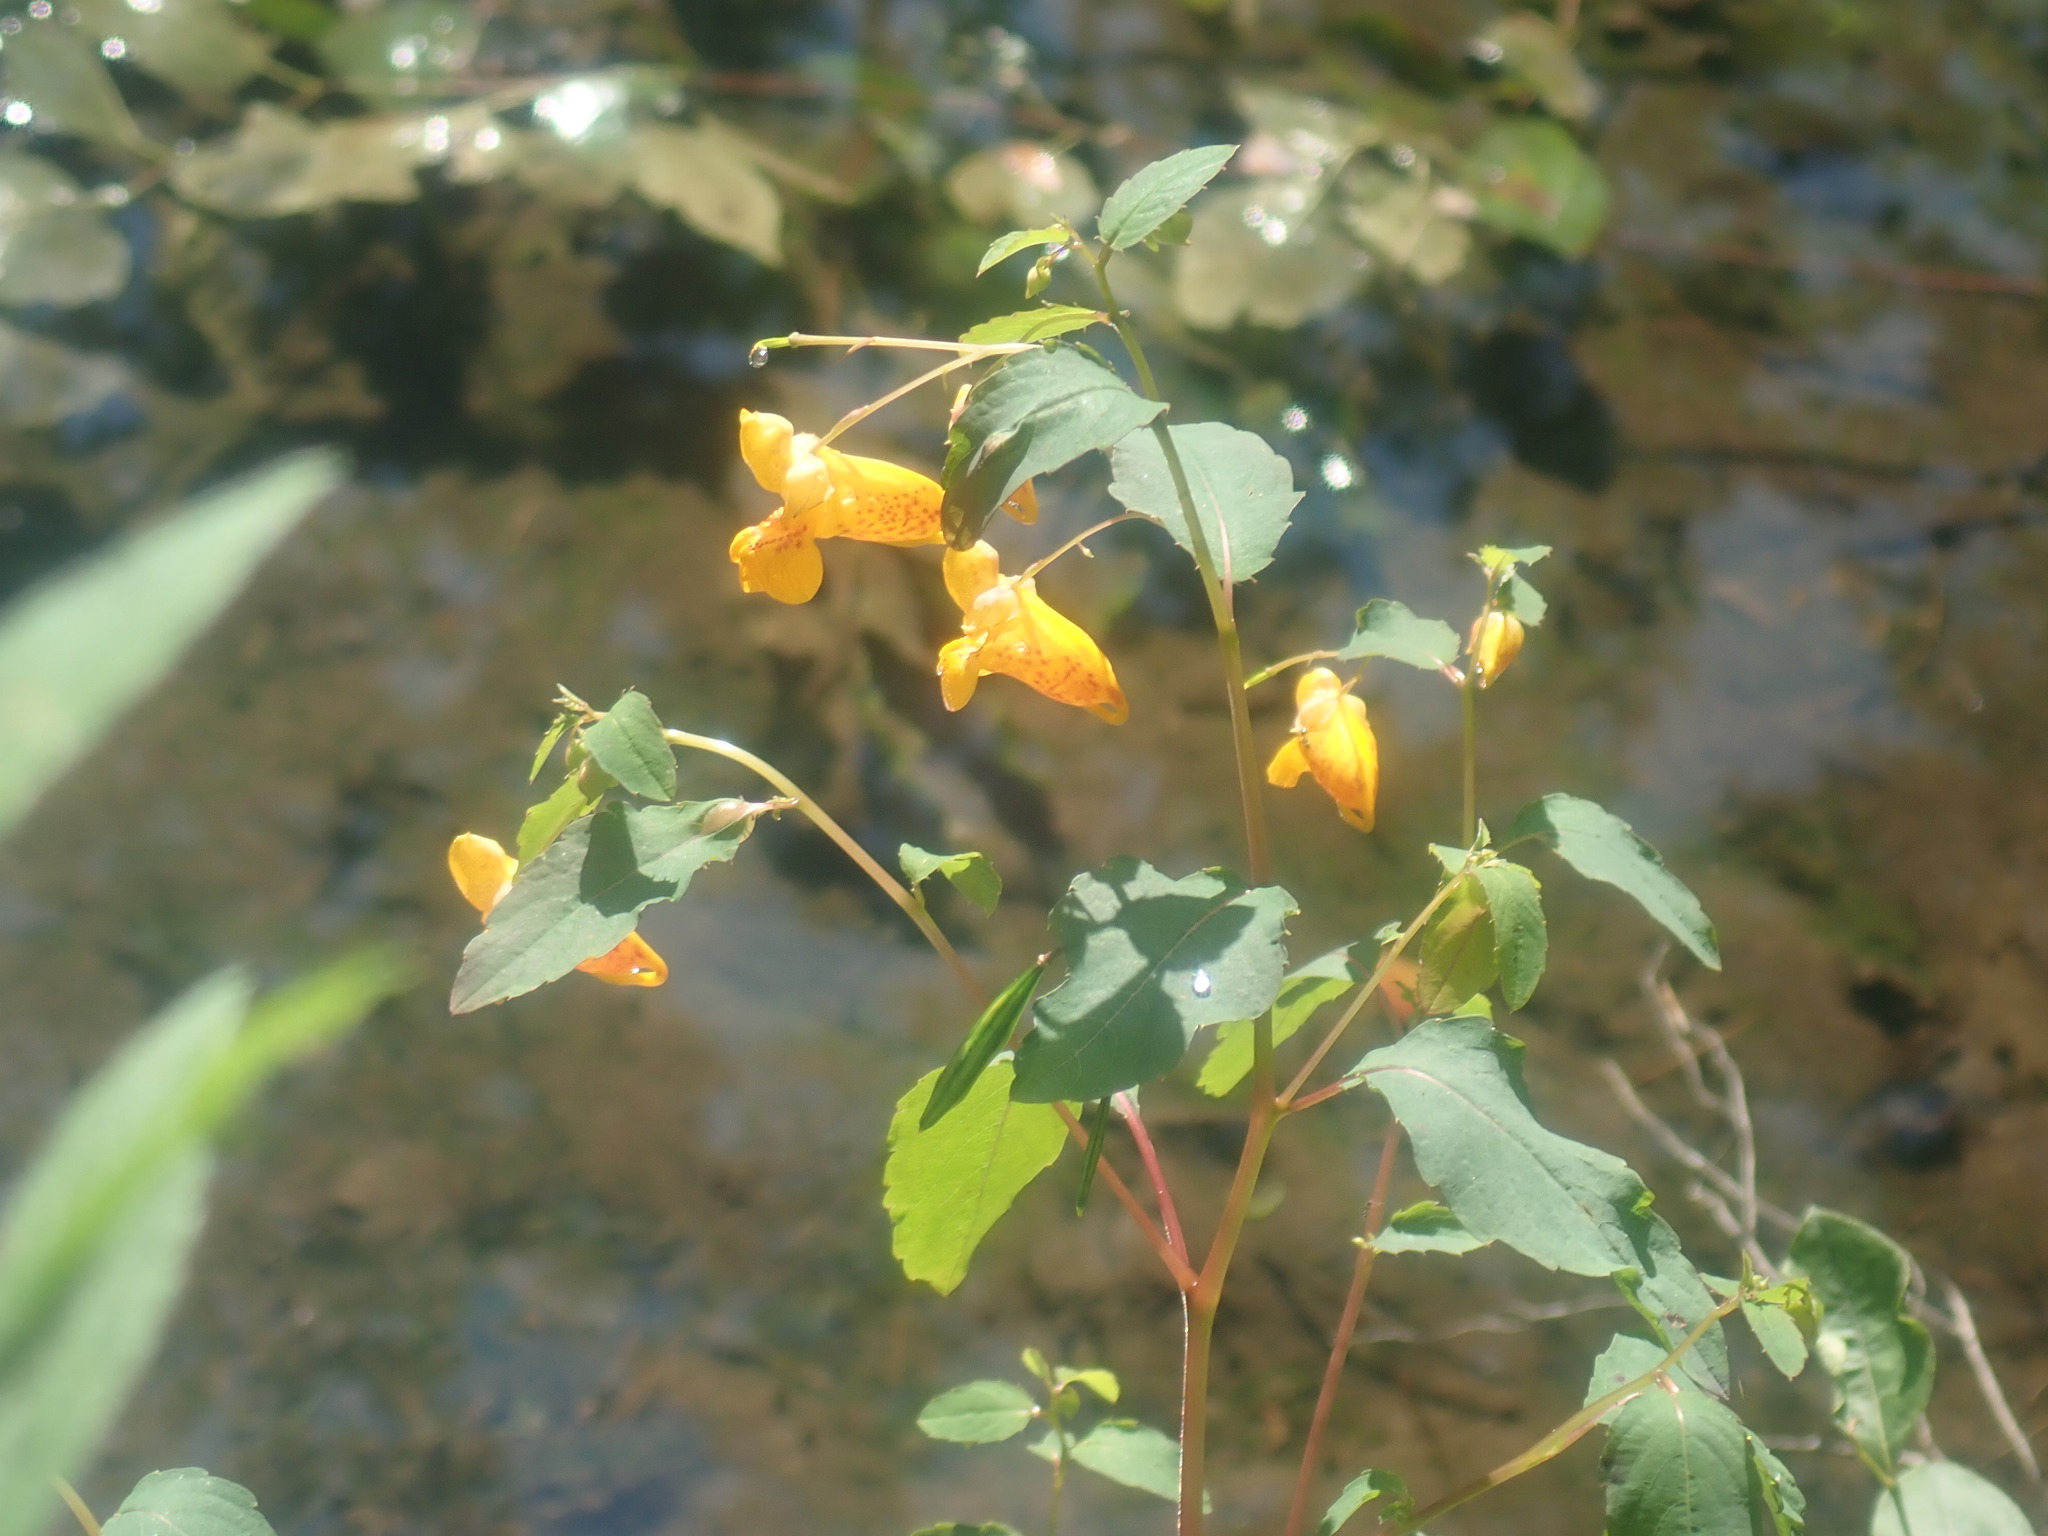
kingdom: Plantae
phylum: Tracheophyta
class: Magnoliopsida
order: Ericales
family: Balsaminaceae
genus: Impatiens
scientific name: Impatiens capensis
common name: Orange balsam
